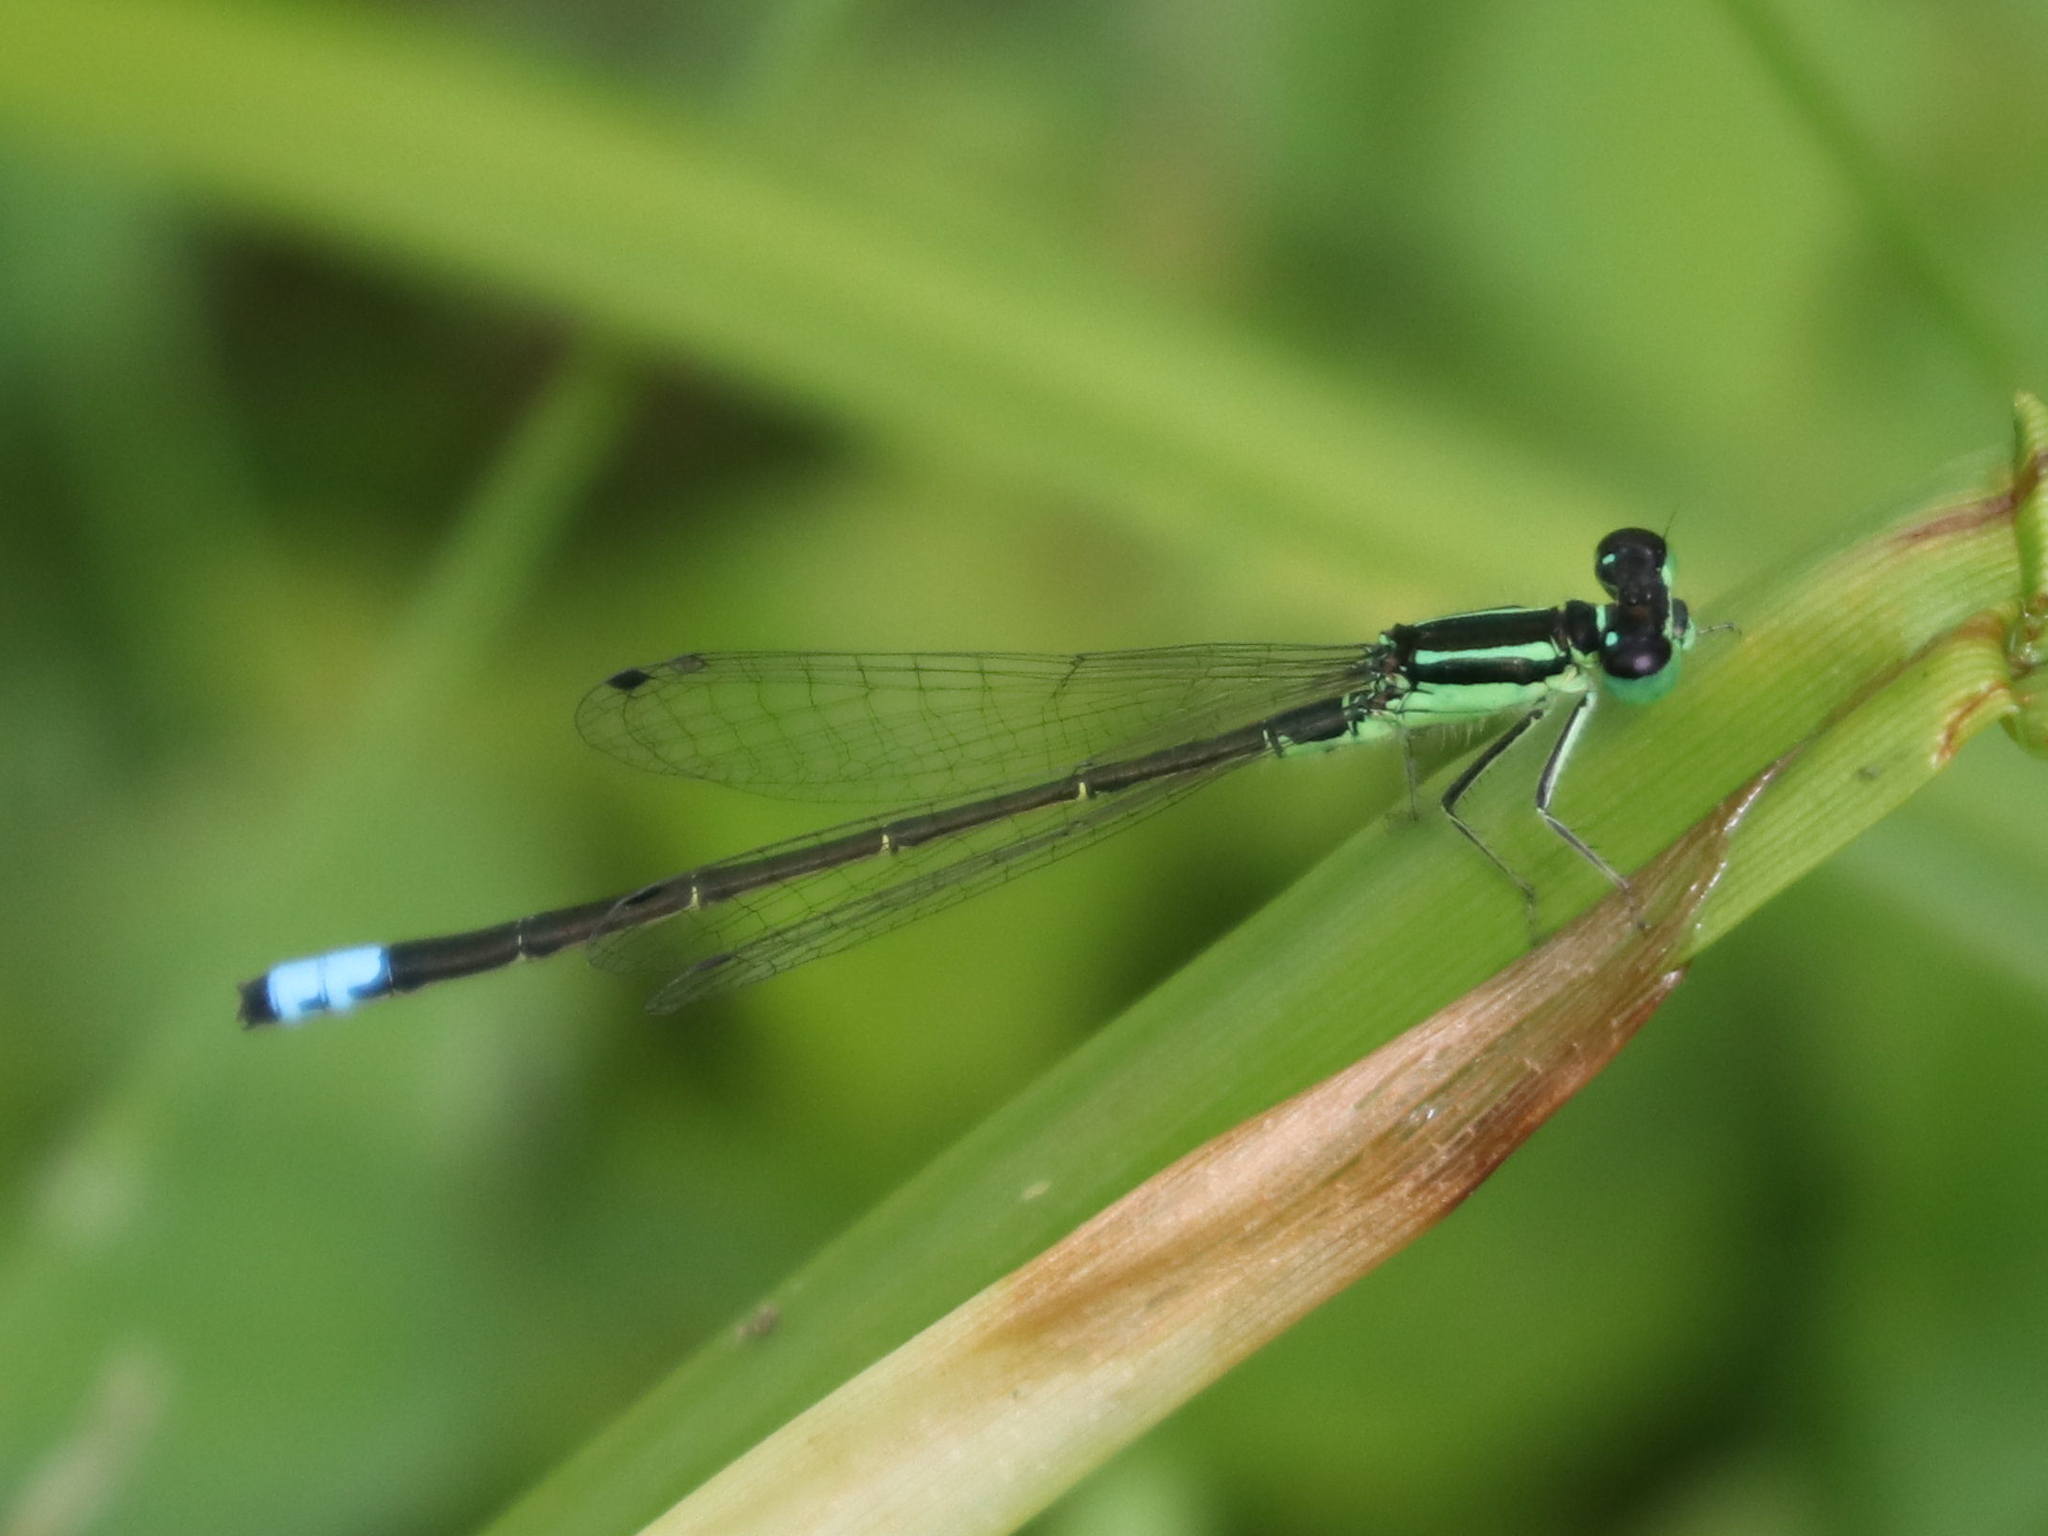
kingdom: Animalia
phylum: Arthropoda
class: Insecta
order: Odonata
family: Coenagrionidae
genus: Ischnura
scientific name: Ischnura verticalis
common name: Eastern forktail
